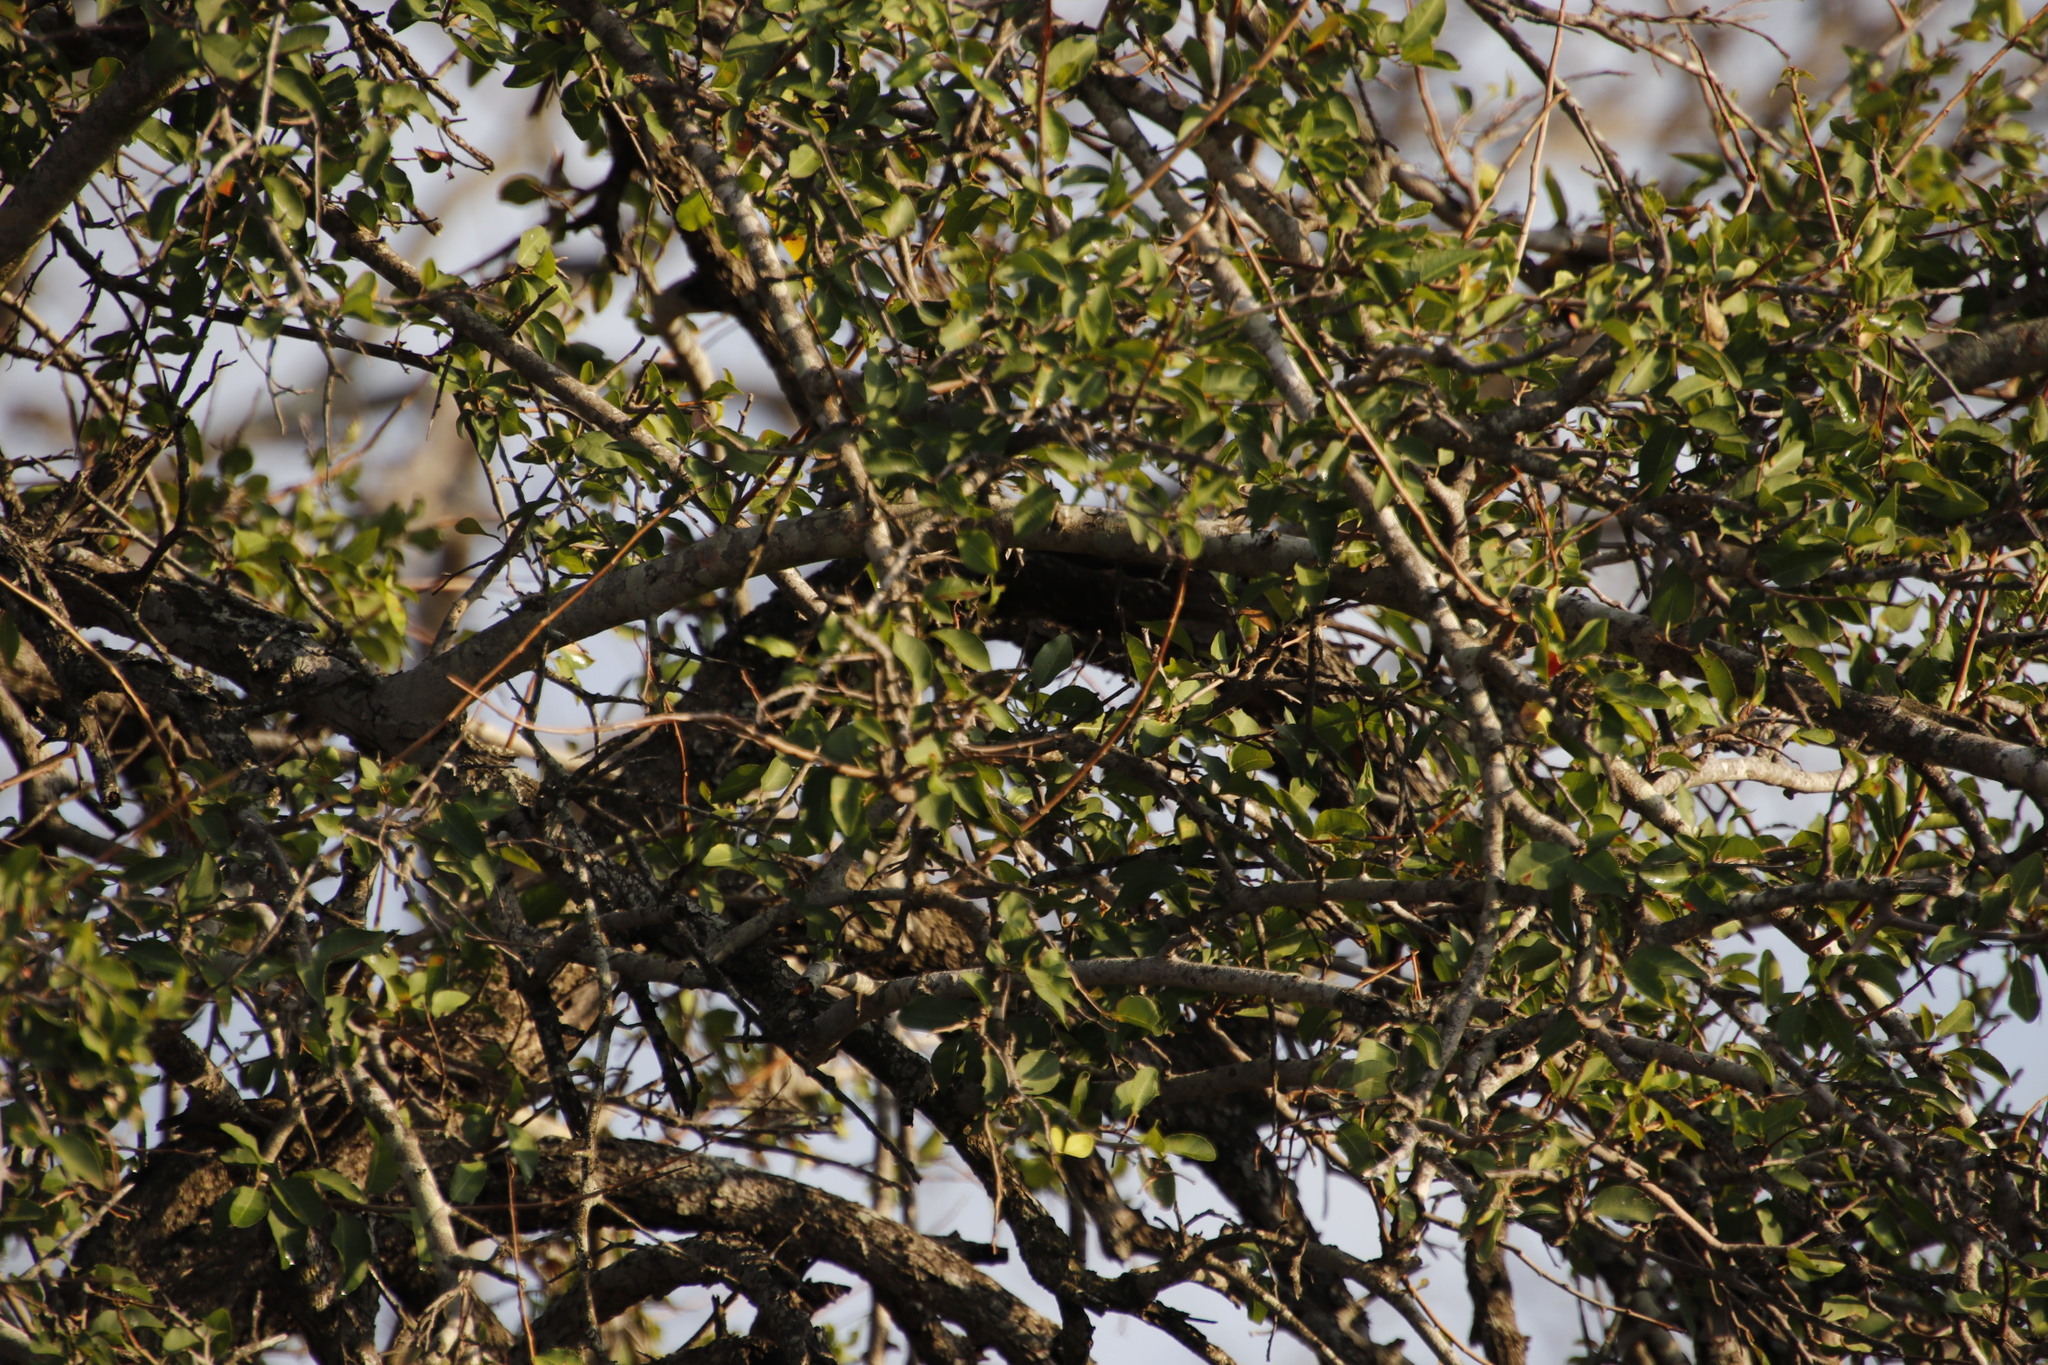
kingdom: Plantae
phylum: Tracheophyta
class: Magnoliopsida
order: Malpighiales
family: Euphorbiaceae
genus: Spirostachys
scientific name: Spirostachys africana
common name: Tamboti
